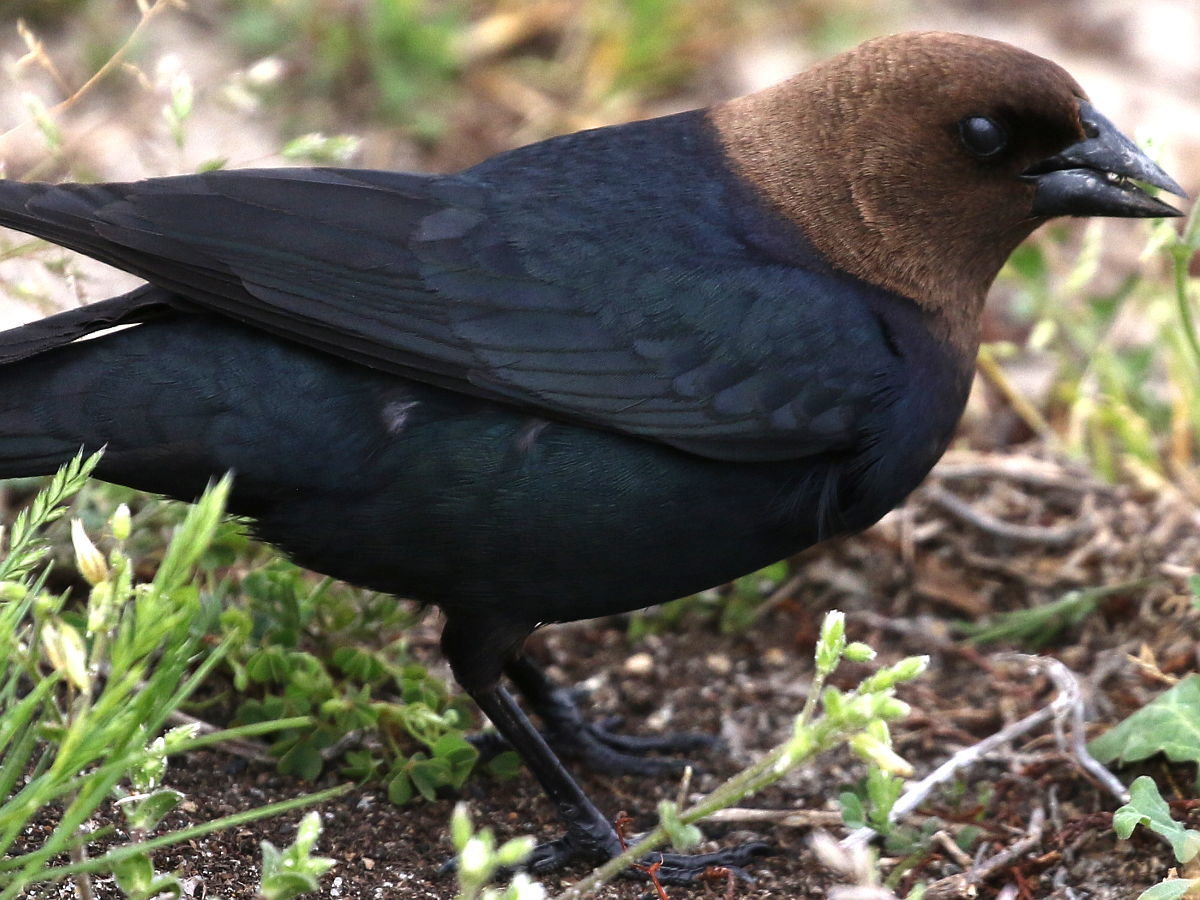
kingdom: Animalia
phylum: Chordata
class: Aves
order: Passeriformes
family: Icteridae
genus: Molothrus
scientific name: Molothrus ater
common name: Brown-headed cowbird
